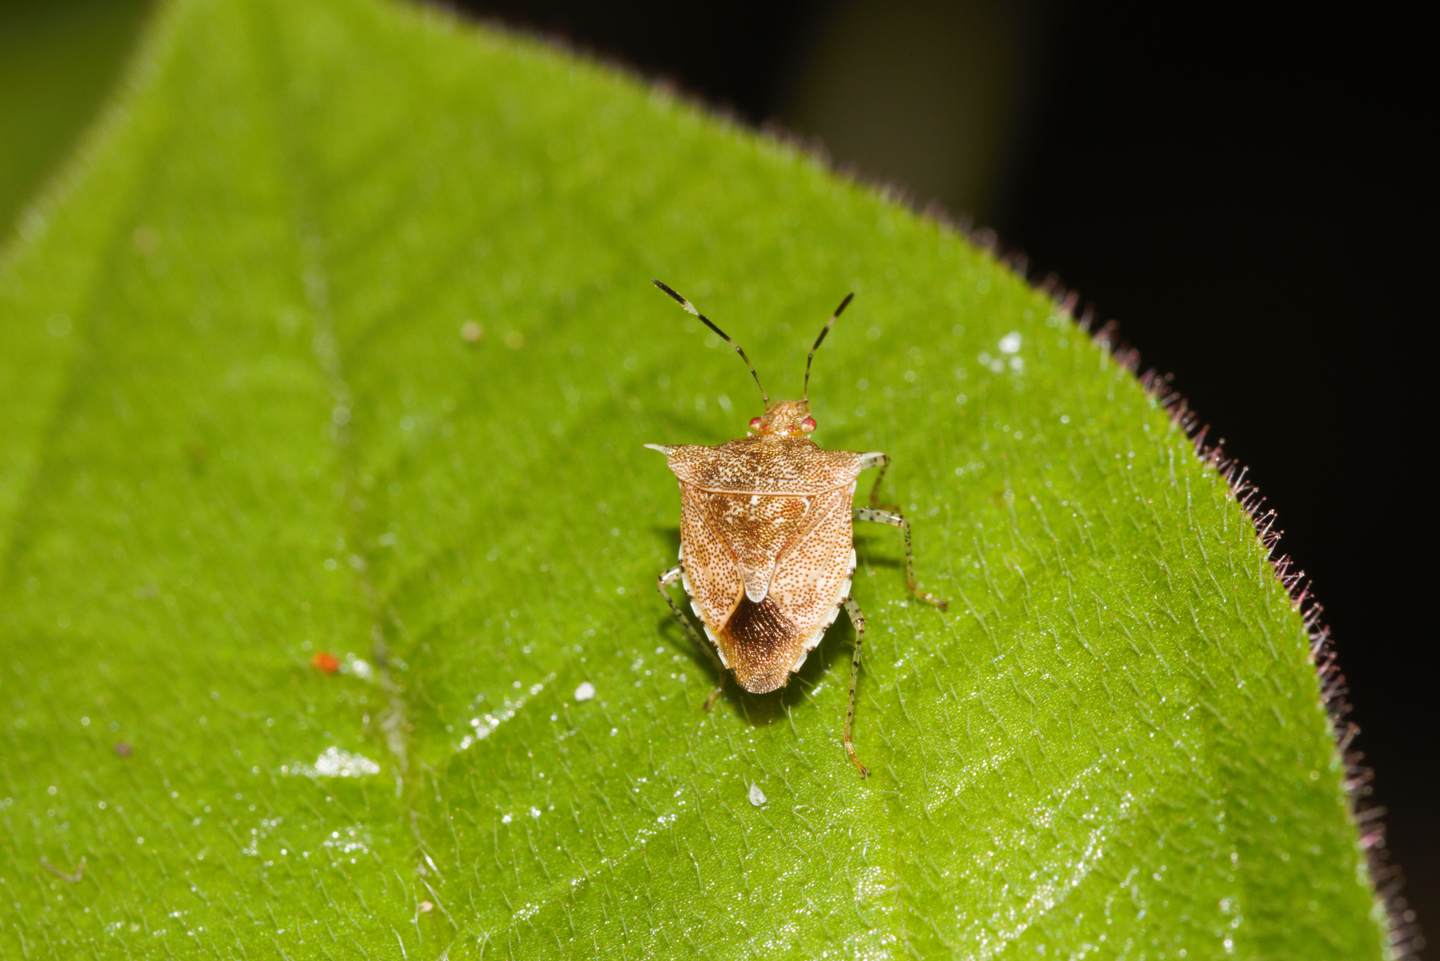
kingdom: Animalia
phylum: Arthropoda
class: Insecta
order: Hemiptera
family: Pentatomidae
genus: Lattinidea
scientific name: Lattinidea
